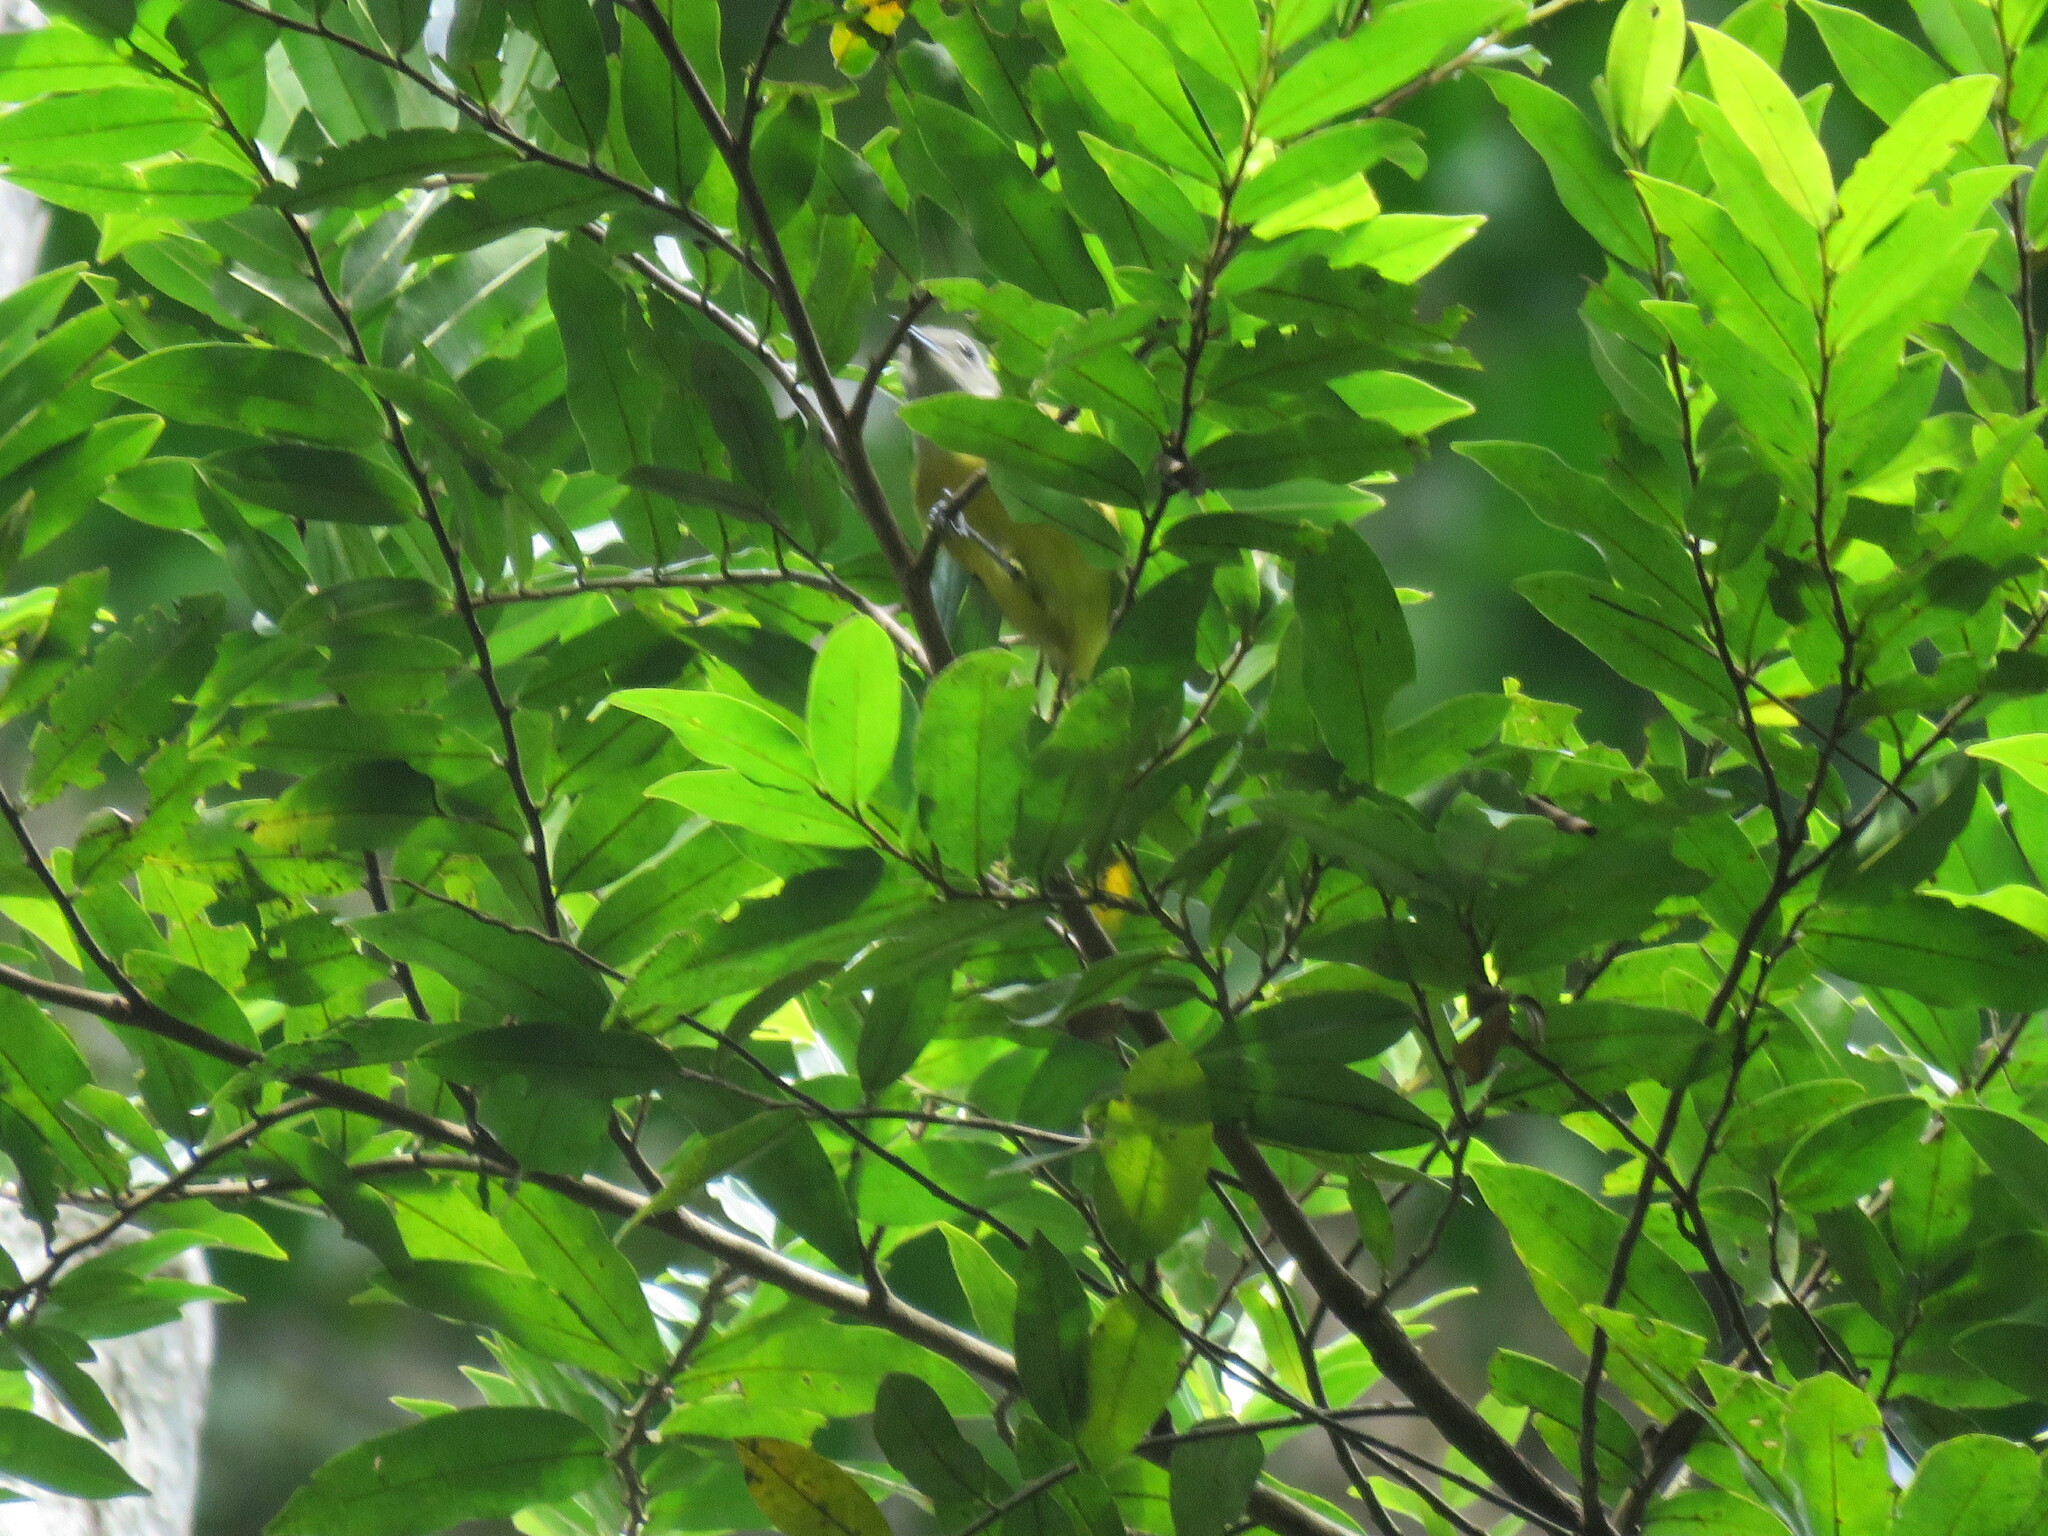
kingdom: Animalia
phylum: Chordata
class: Aves
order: Passeriformes
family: Thraupidae
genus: Loriotus
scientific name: Loriotus luctuosus
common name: White-shouldered tanager
